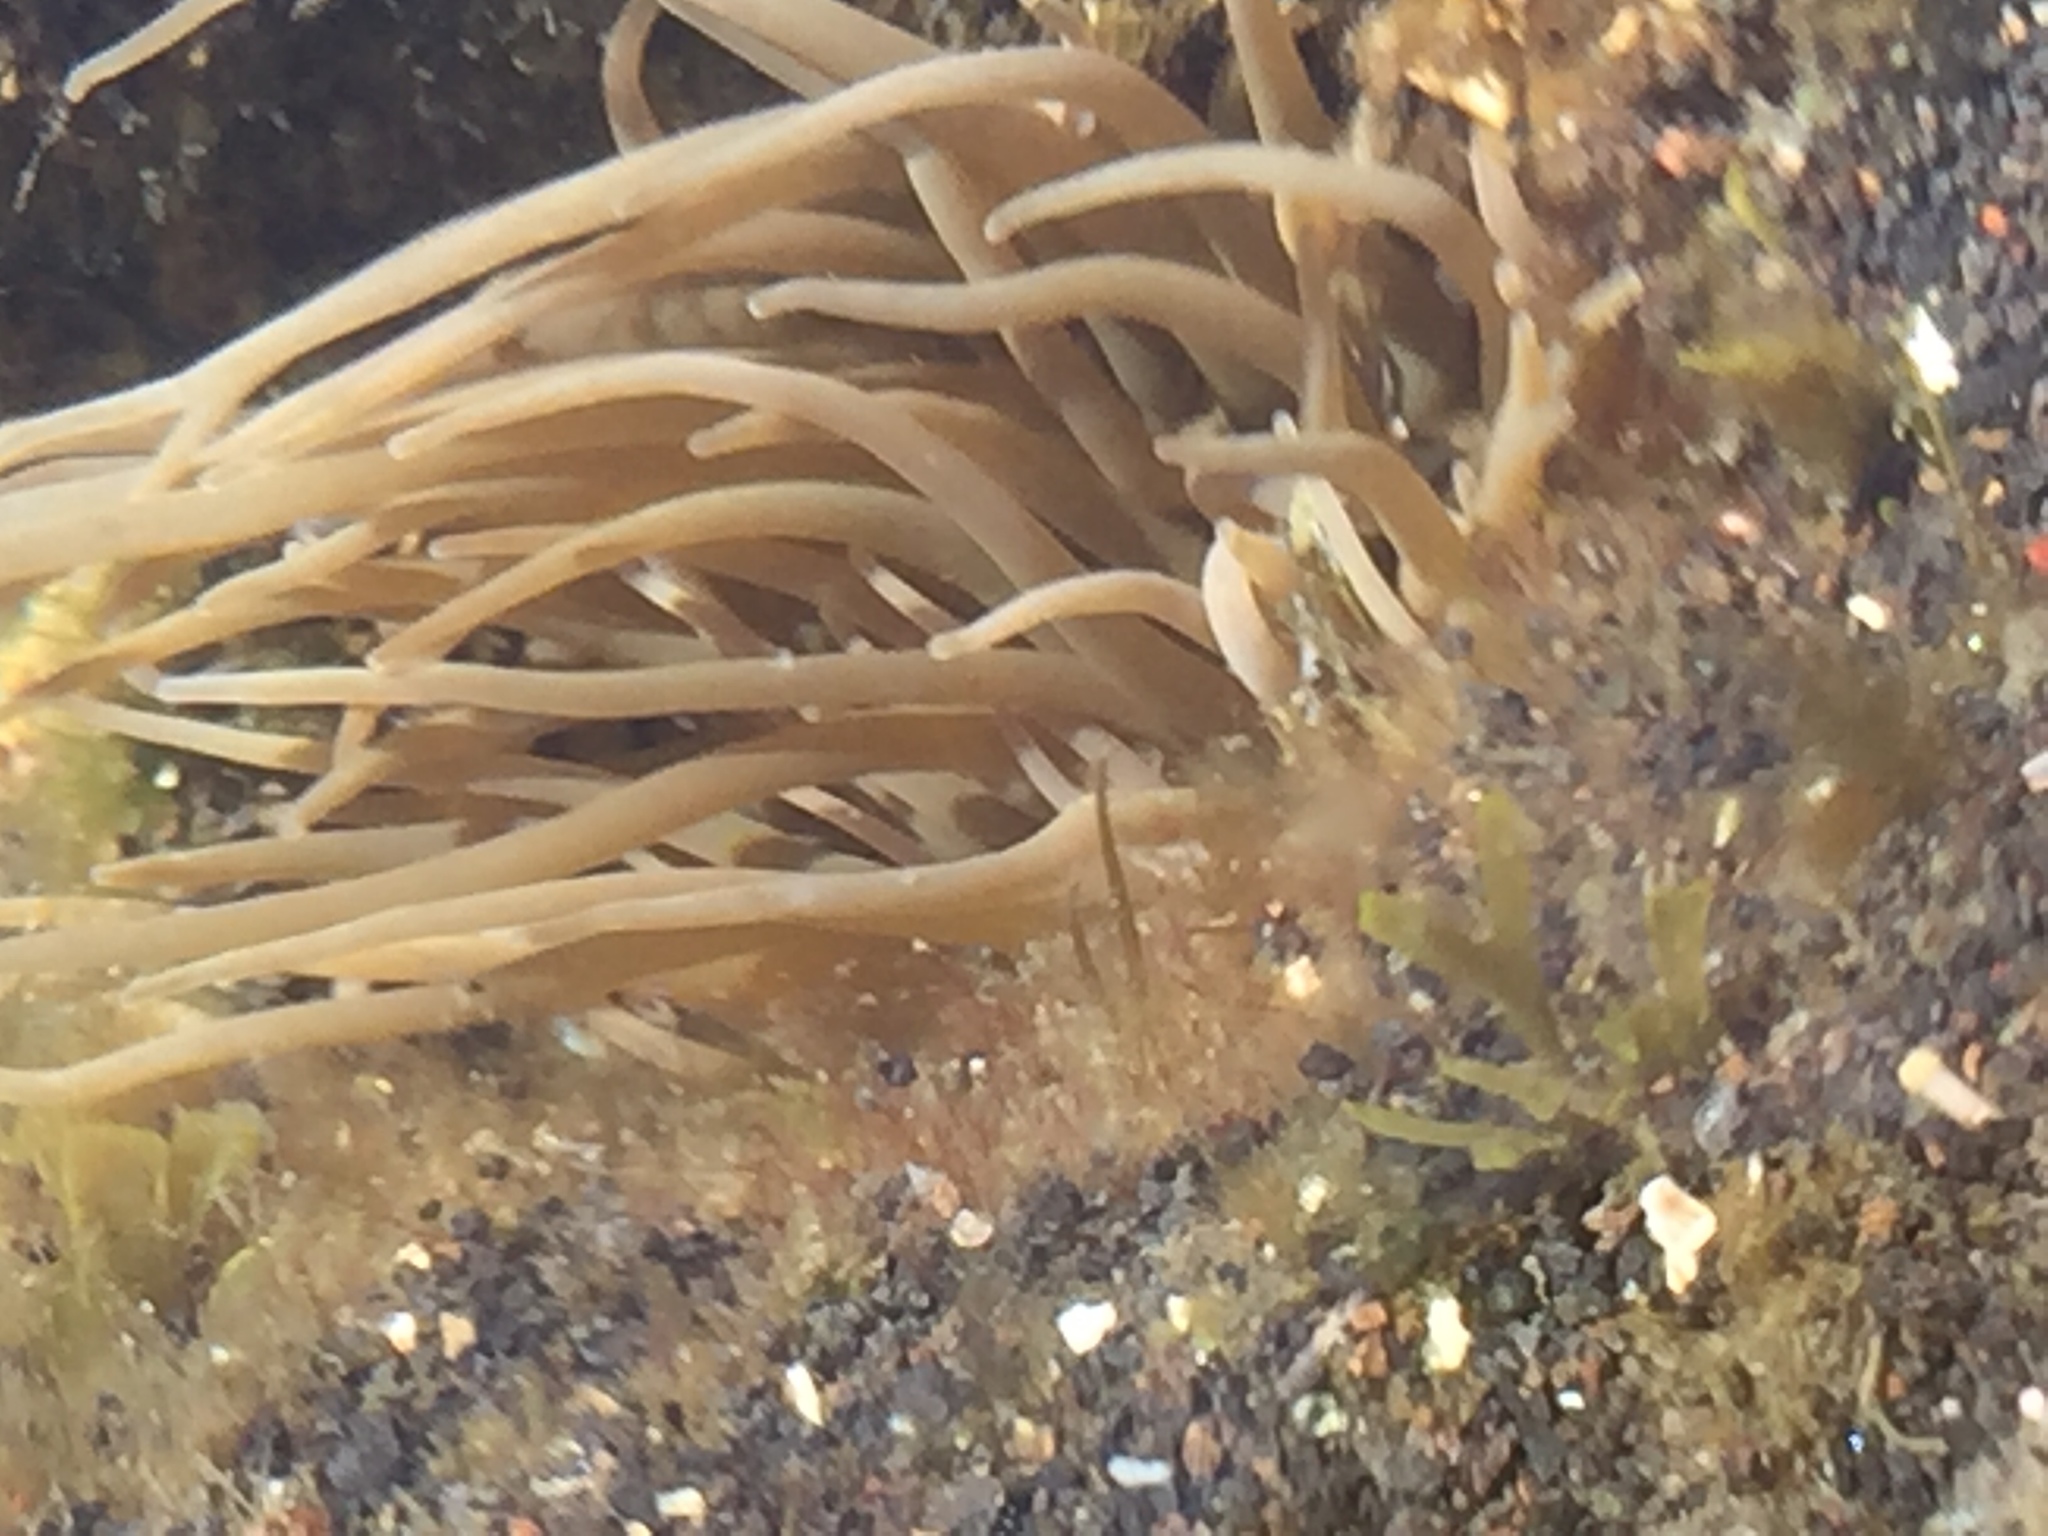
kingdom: Animalia
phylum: Cnidaria
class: Anthozoa
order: Actiniaria
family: Actiniidae
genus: Anemonia
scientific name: Anemonia viridis
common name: Snakelocks anemone
